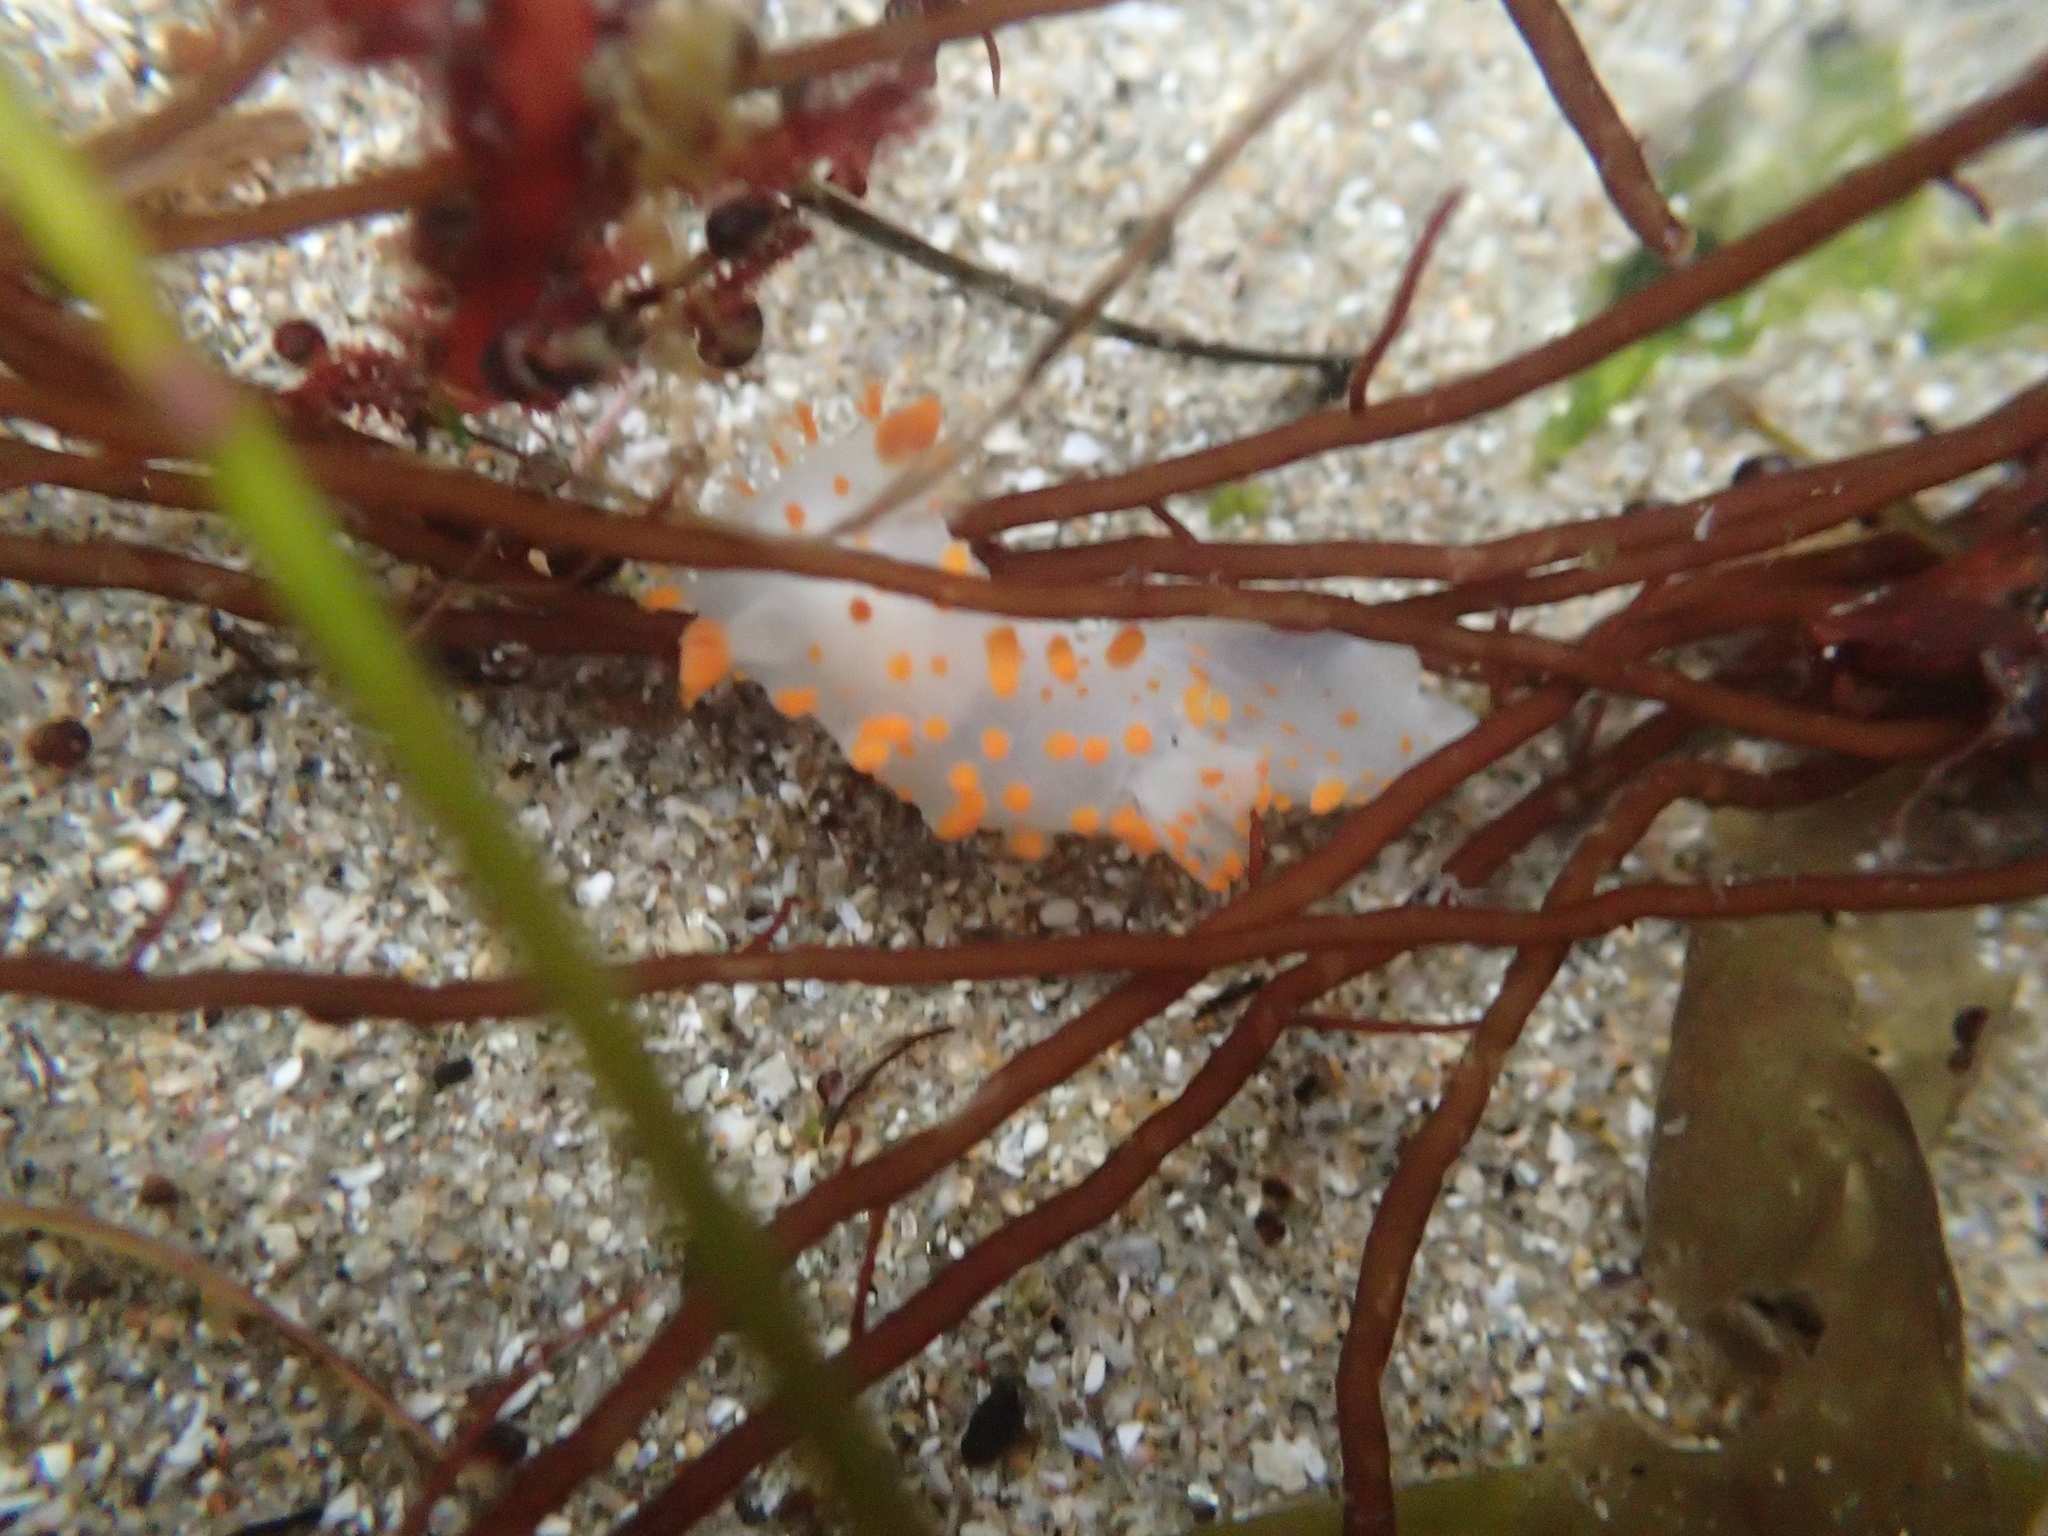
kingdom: Animalia
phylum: Mollusca
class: Gastropoda
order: Nudibranchia
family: Polyceridae
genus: Triopha
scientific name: Triopha catalinae
